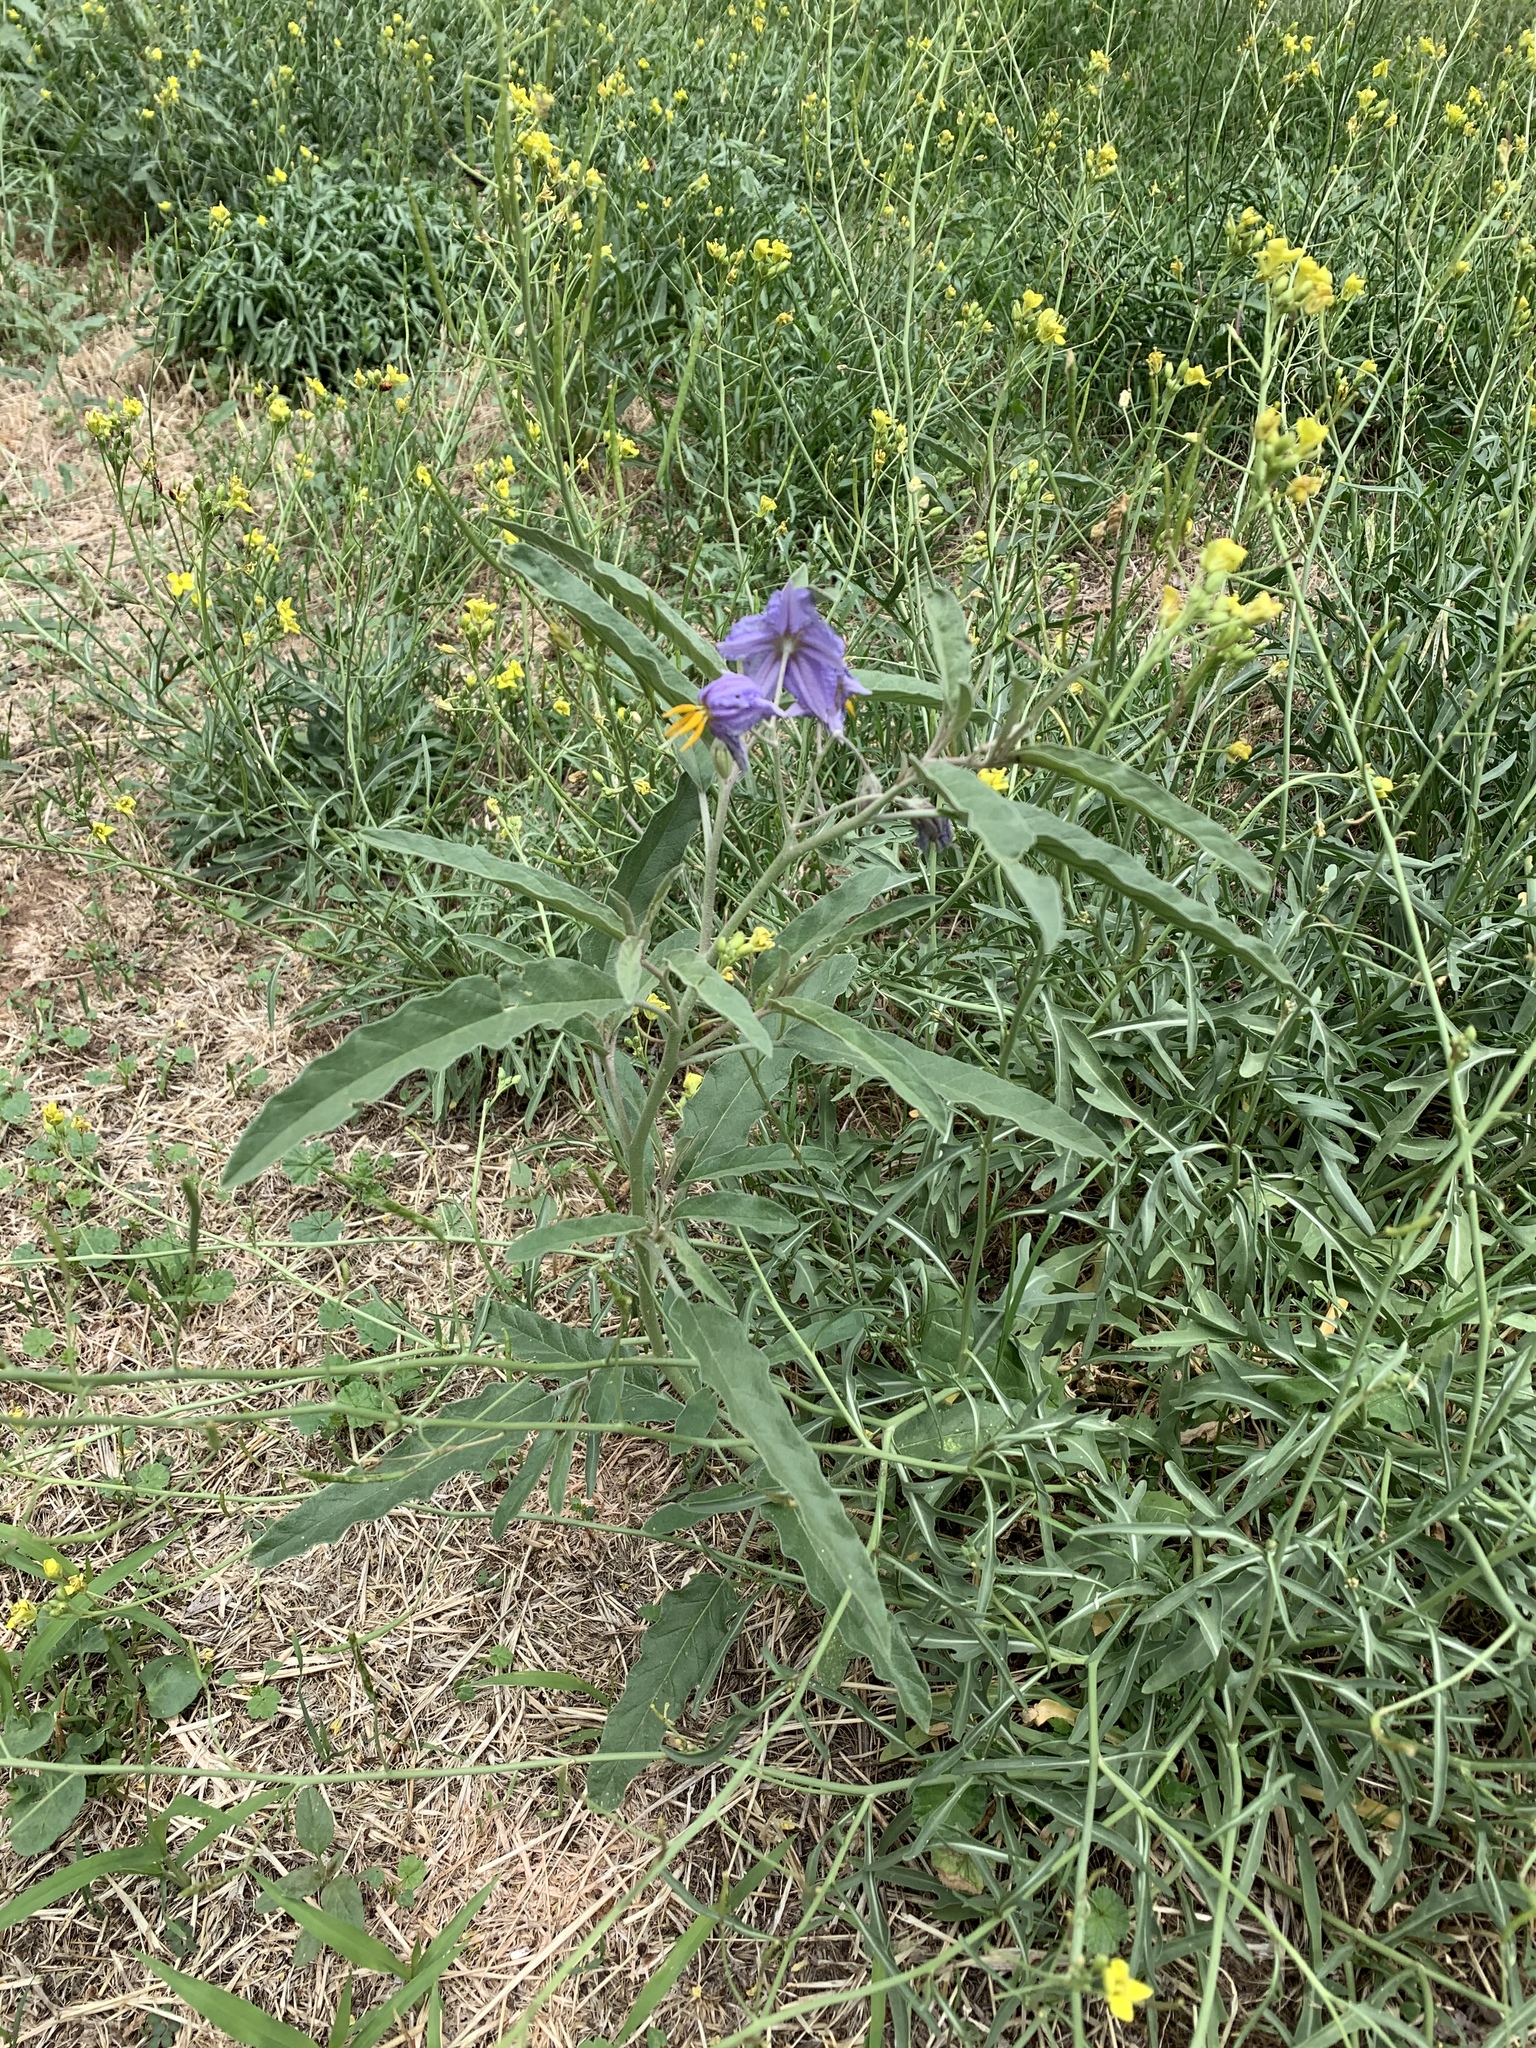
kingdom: Plantae
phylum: Tracheophyta
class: Magnoliopsida
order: Solanales
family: Solanaceae
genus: Solanum
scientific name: Solanum elaeagnifolium
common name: Silverleaf nightshade
